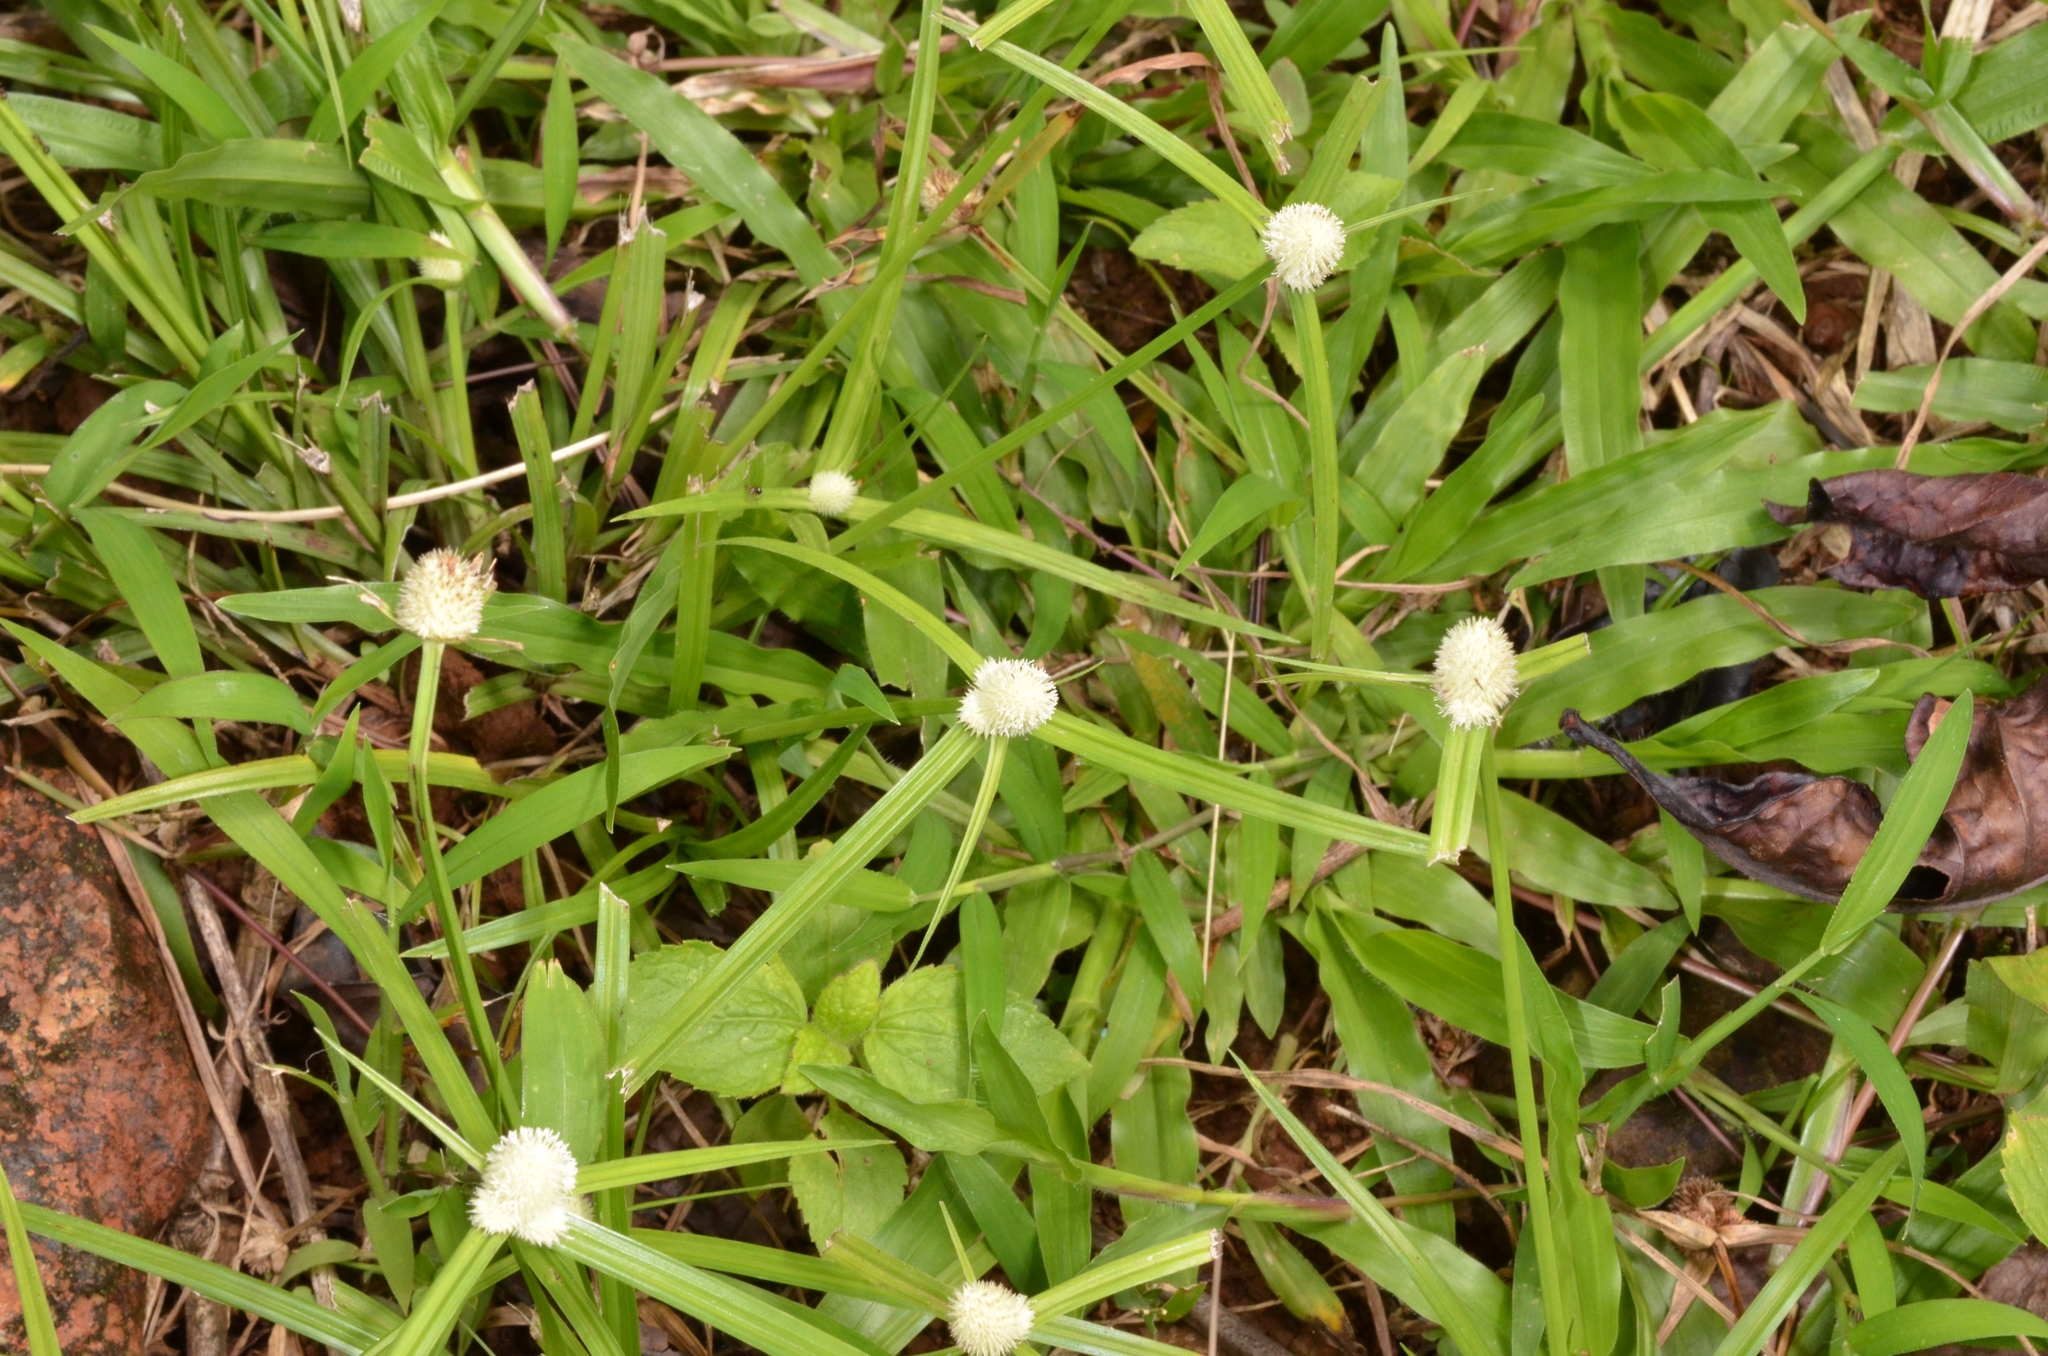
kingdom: Plantae
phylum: Tracheophyta
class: Liliopsida
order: Poales
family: Cyperaceae
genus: Cyperus
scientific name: Cyperus mindorensis
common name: Flatsedge
